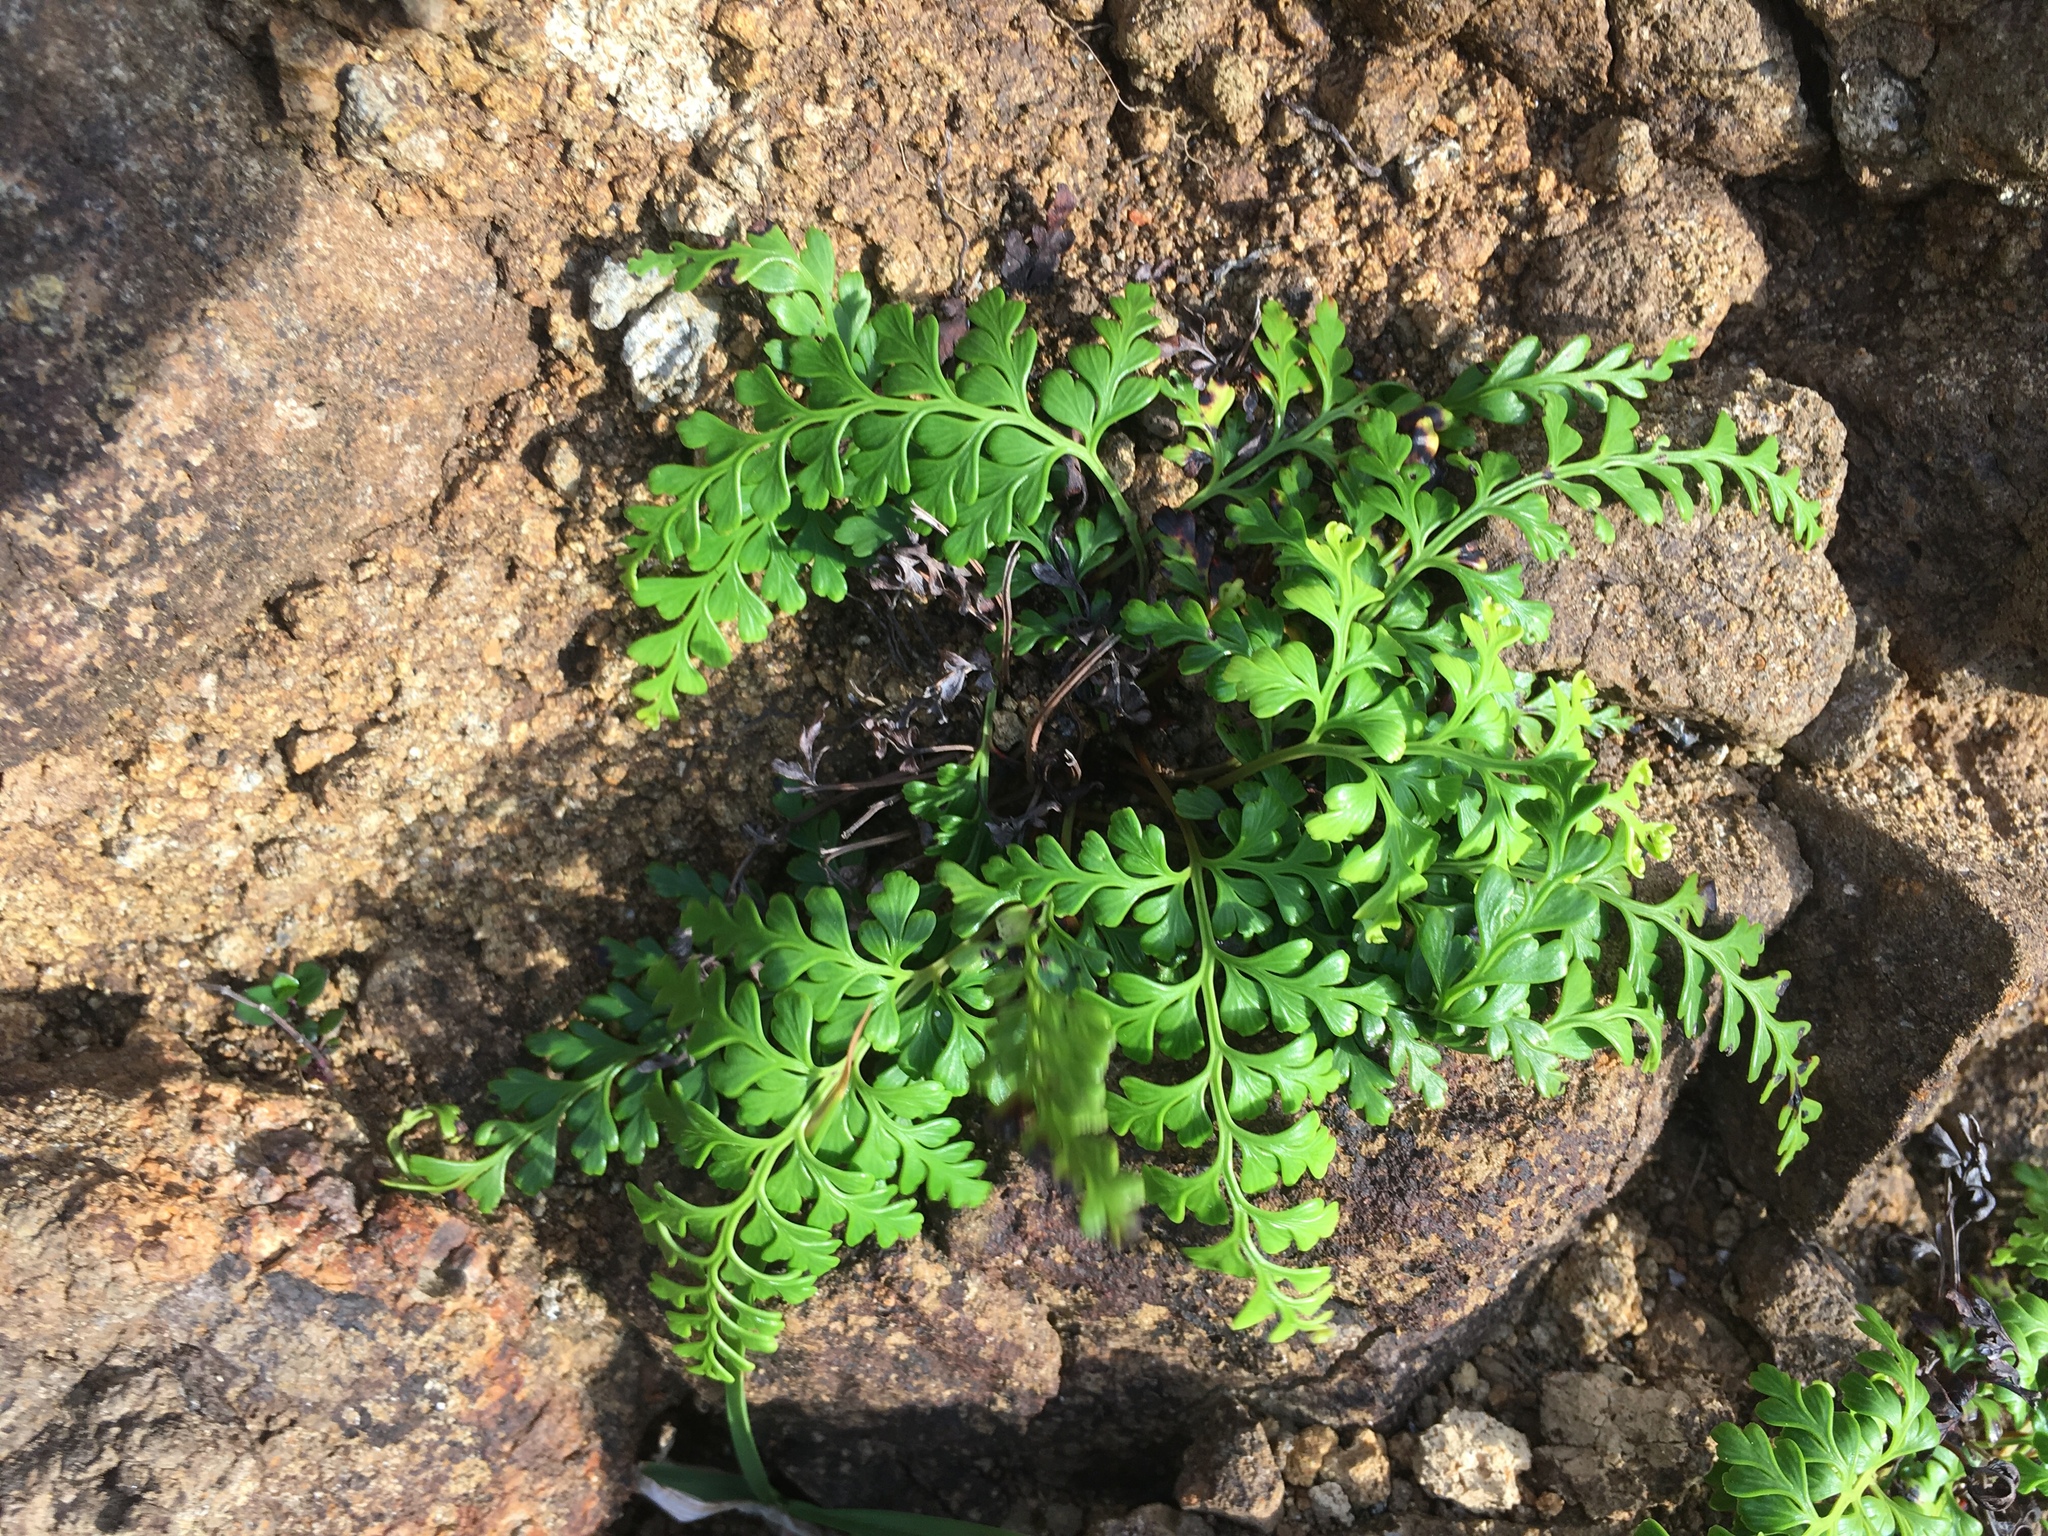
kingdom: Plantae
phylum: Tracheophyta
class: Polypodiopsida
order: Polypodiales
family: Lindsaeaceae
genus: Odontosoria
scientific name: Odontosoria biflora
